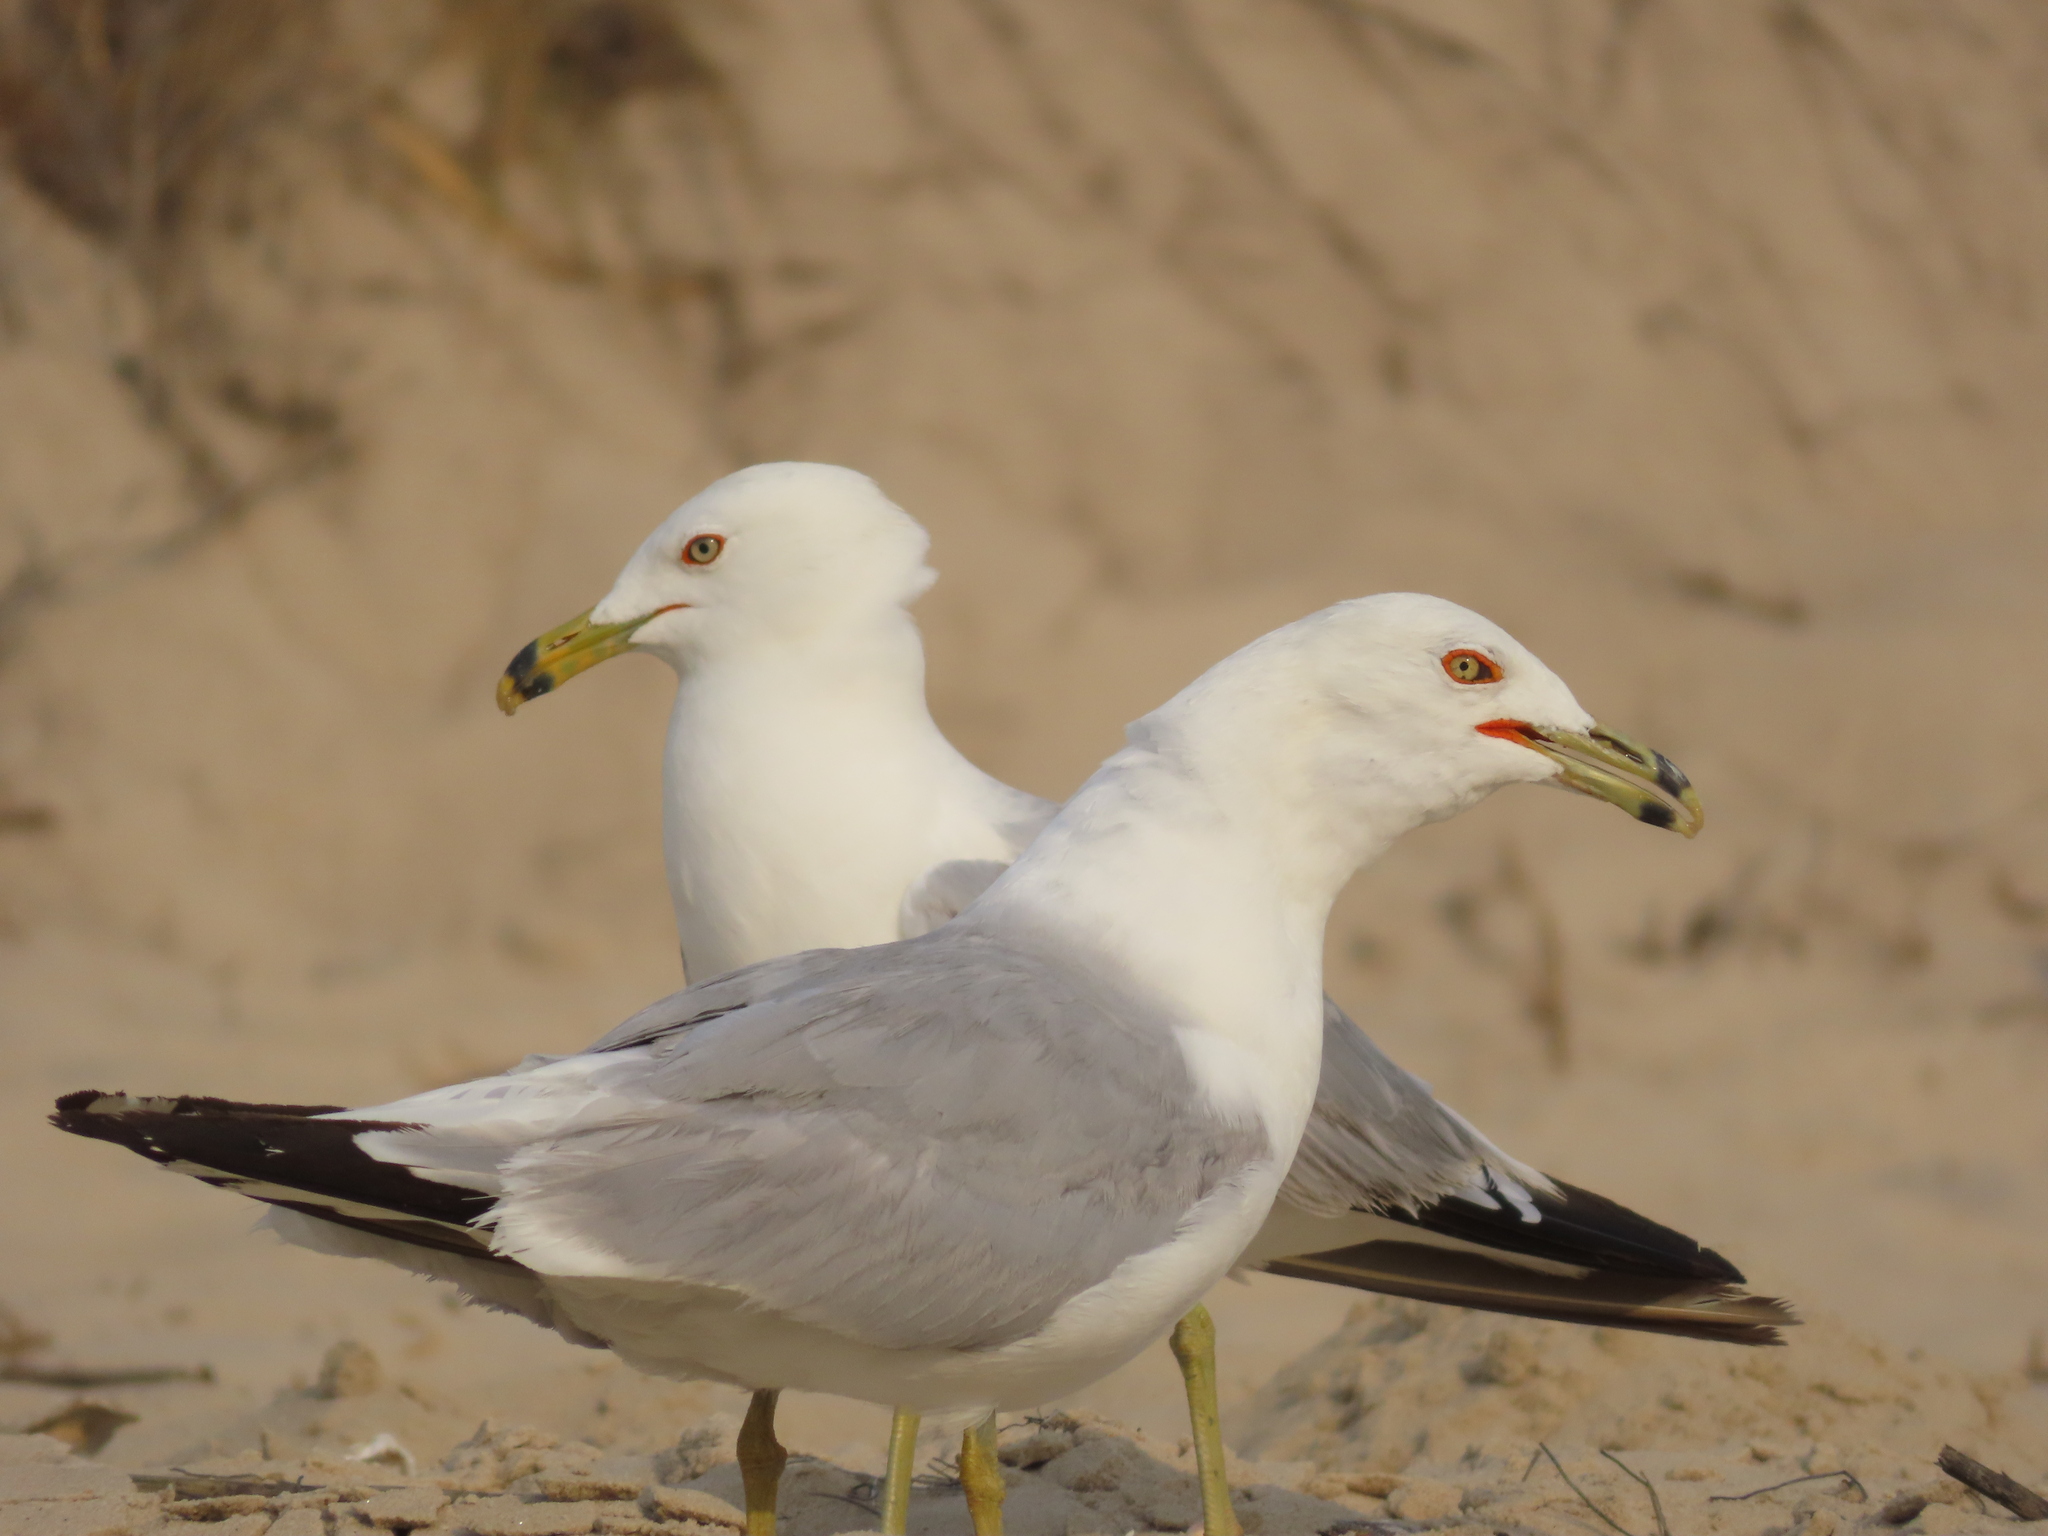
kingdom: Animalia
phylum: Chordata
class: Aves
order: Charadriiformes
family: Laridae
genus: Larus
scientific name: Larus delawarensis
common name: Ring-billed gull
